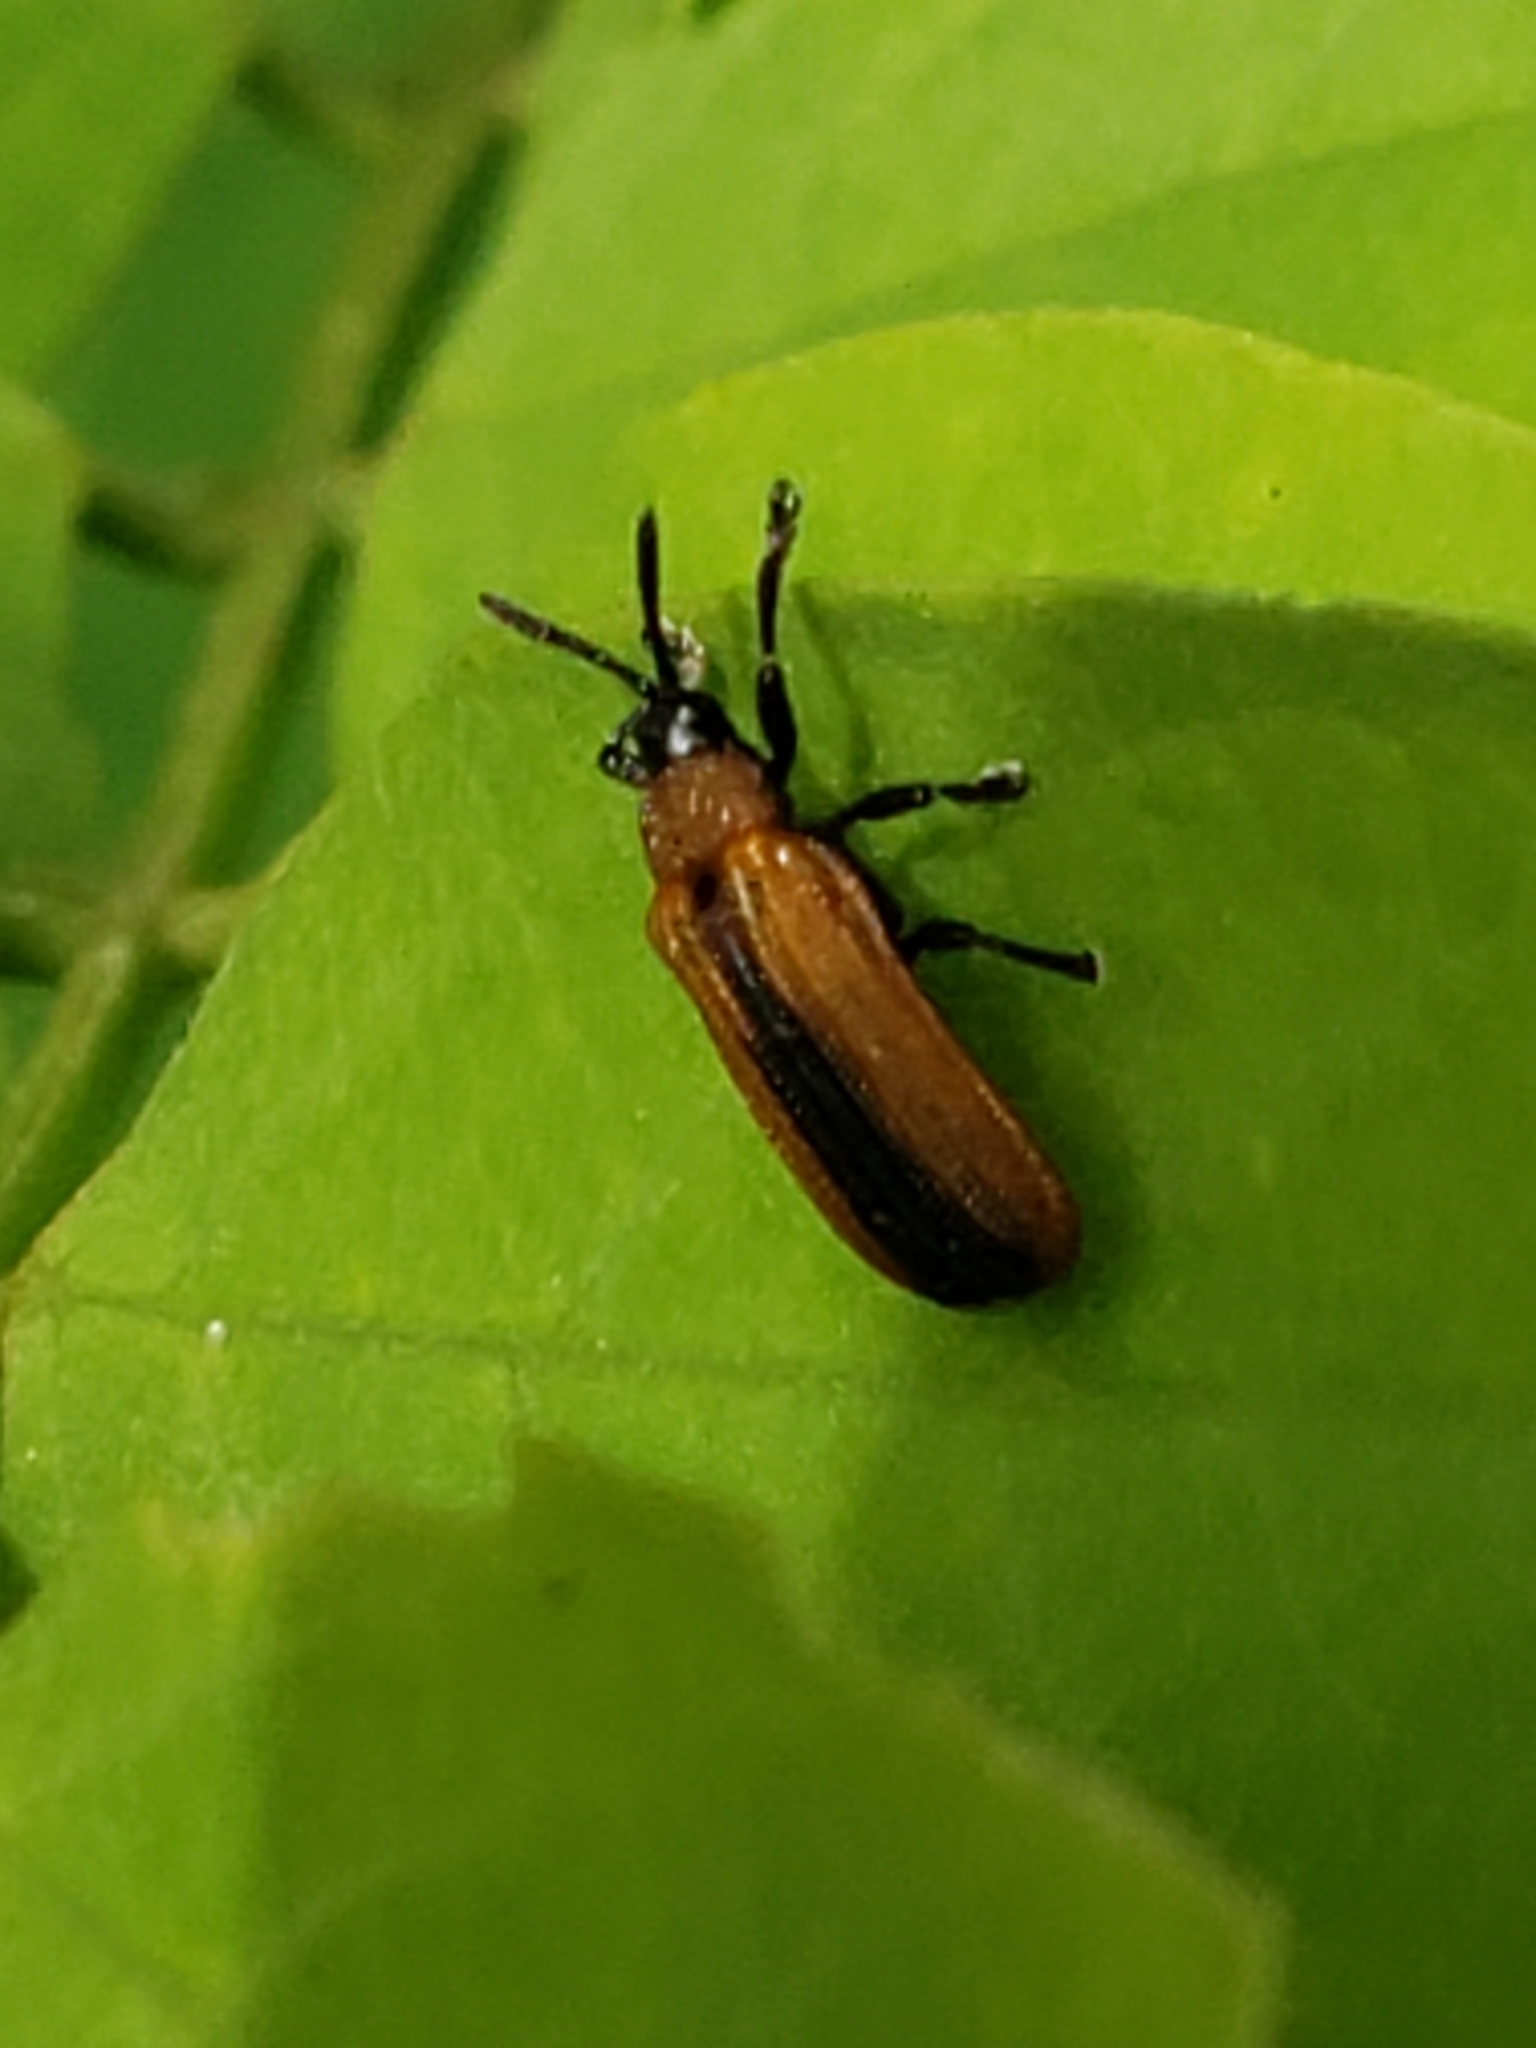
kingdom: Animalia
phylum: Arthropoda
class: Insecta
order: Coleoptera
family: Chrysomelidae
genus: Odontota
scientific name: Odontota dorsalis
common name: Locust leaf-miner beetle
